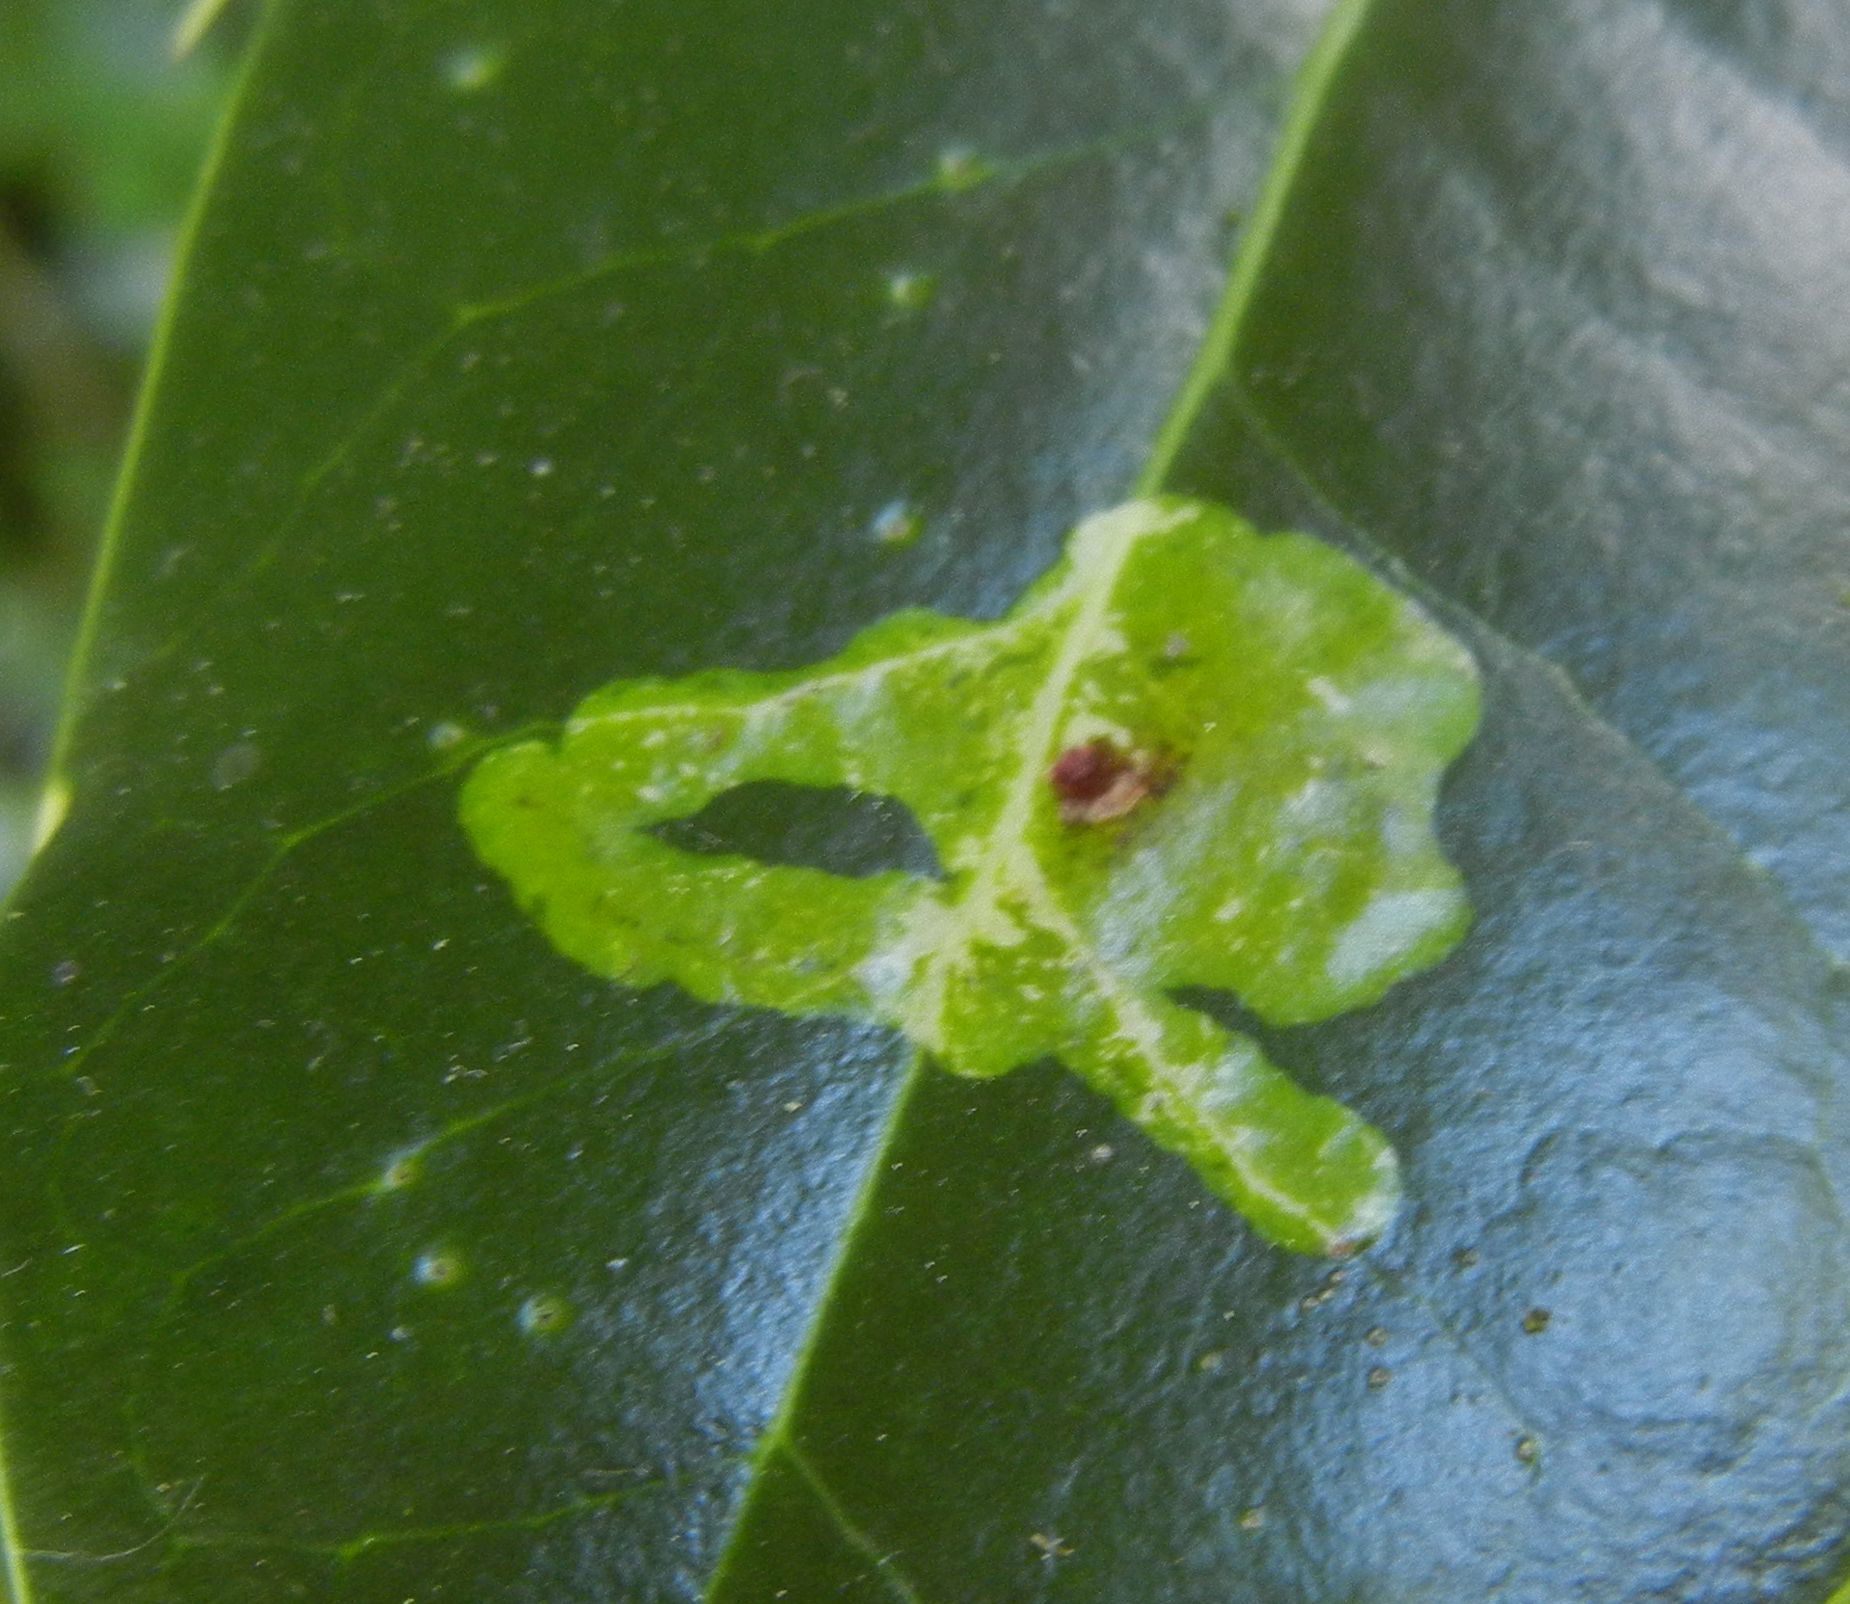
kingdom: Animalia
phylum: Arthropoda
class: Insecta
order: Diptera
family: Agromyzidae
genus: Phytomyza
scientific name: Phytomyza ilicis
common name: Holly leafminer
